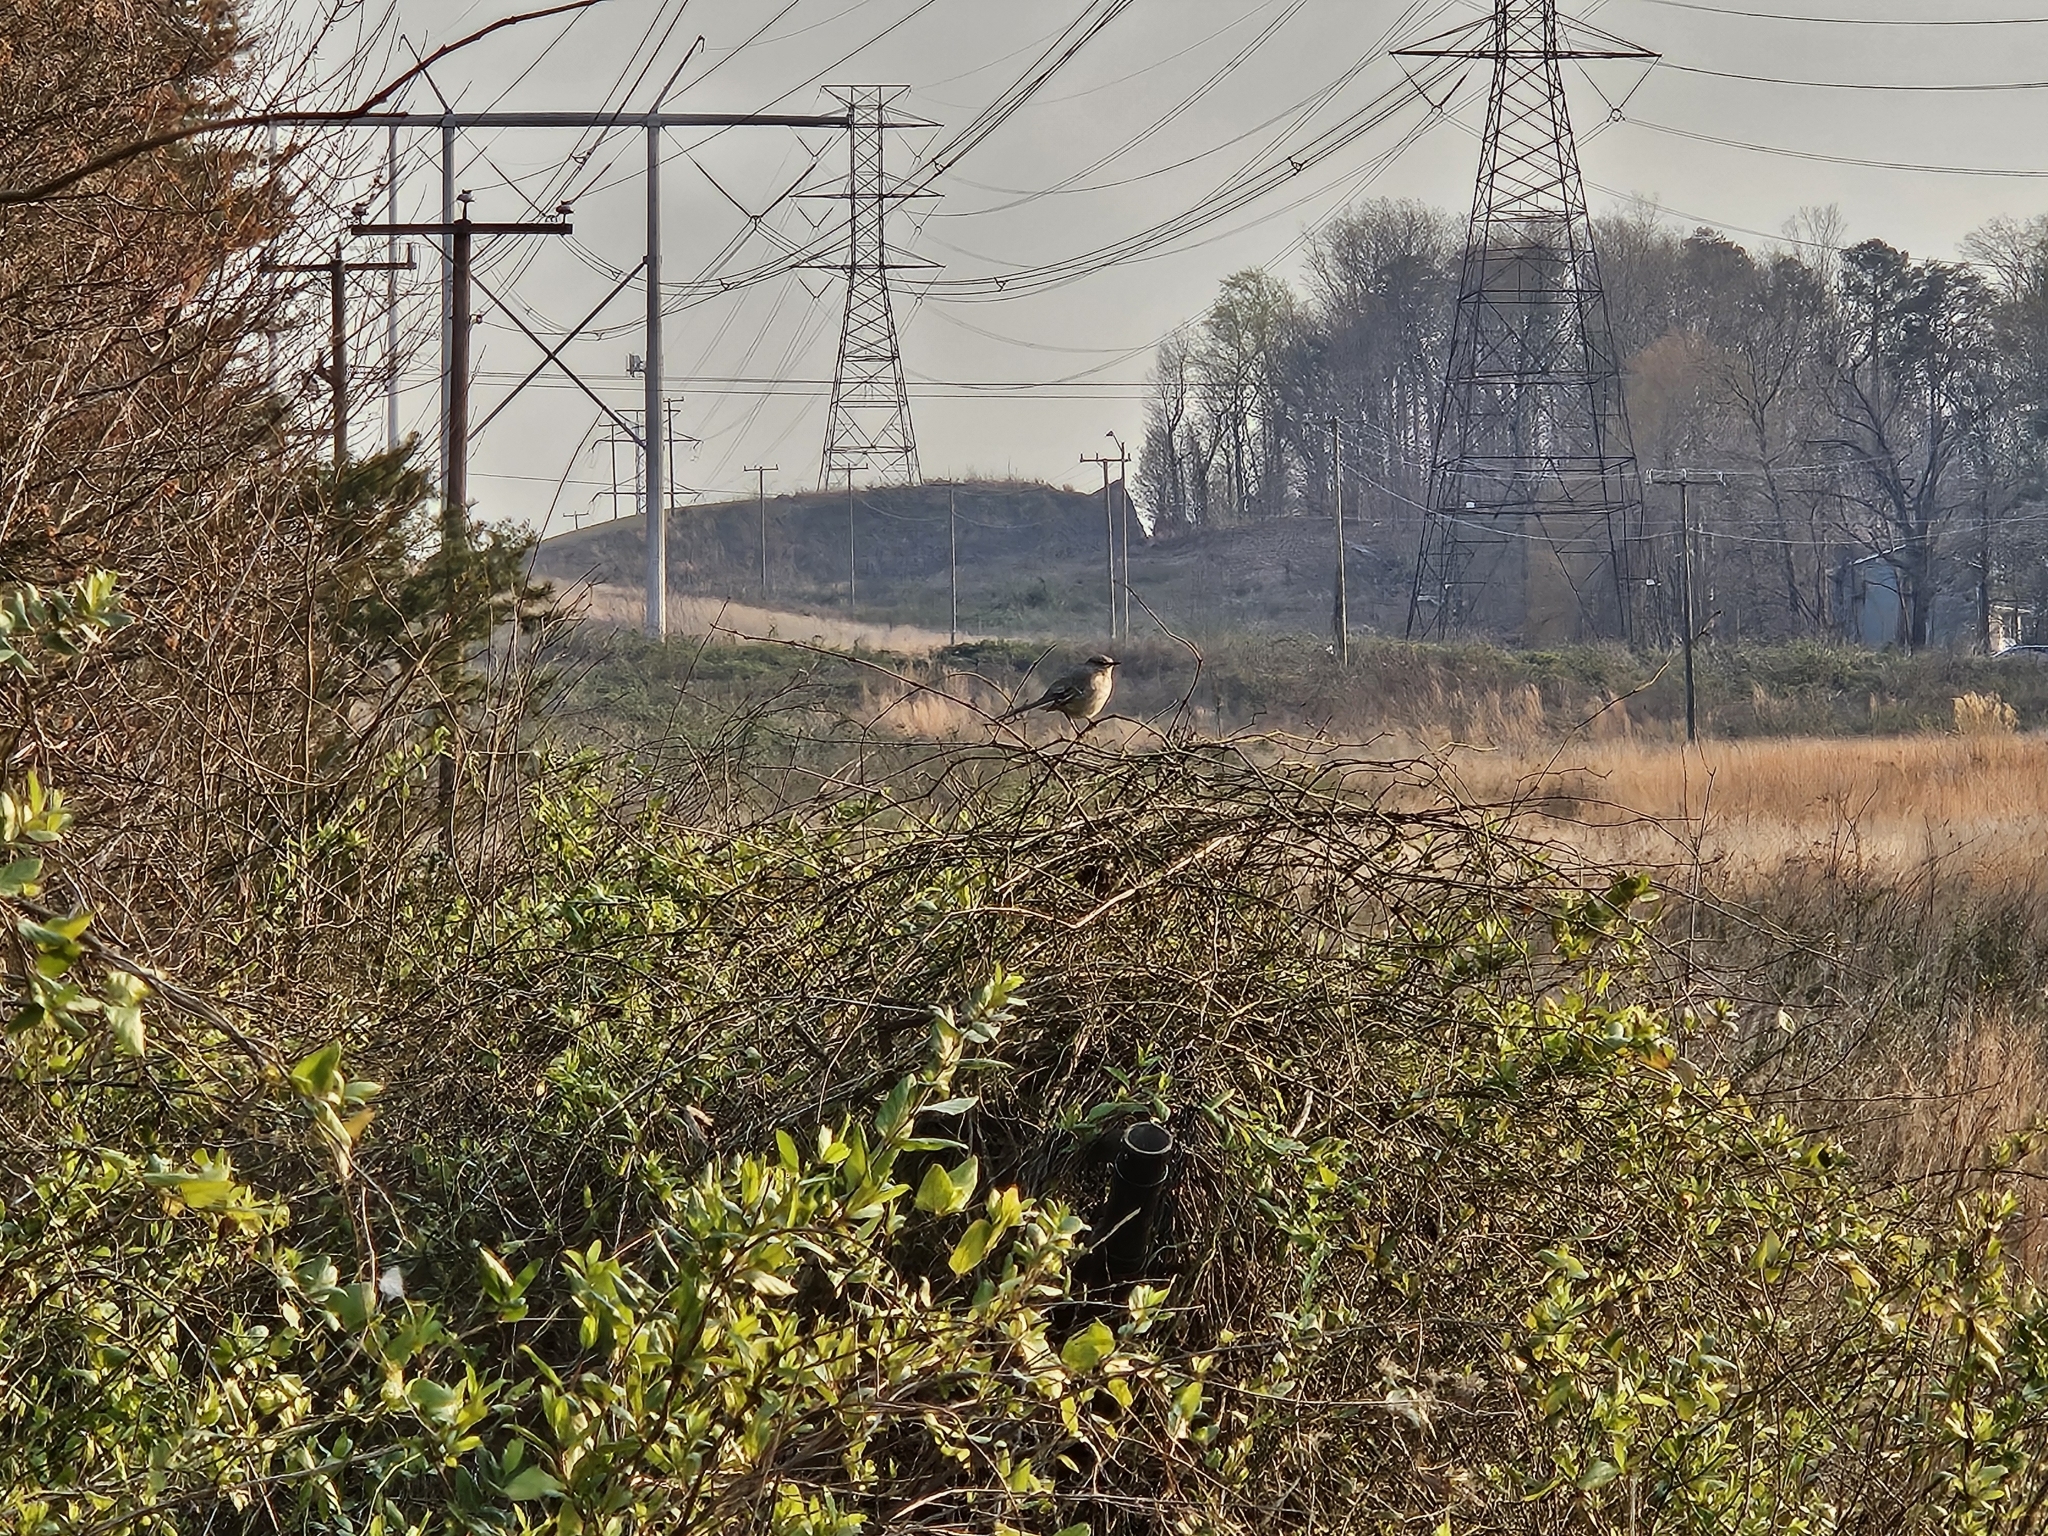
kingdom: Animalia
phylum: Chordata
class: Aves
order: Passeriformes
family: Mimidae
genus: Mimus
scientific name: Mimus polyglottos
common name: Northern mockingbird
